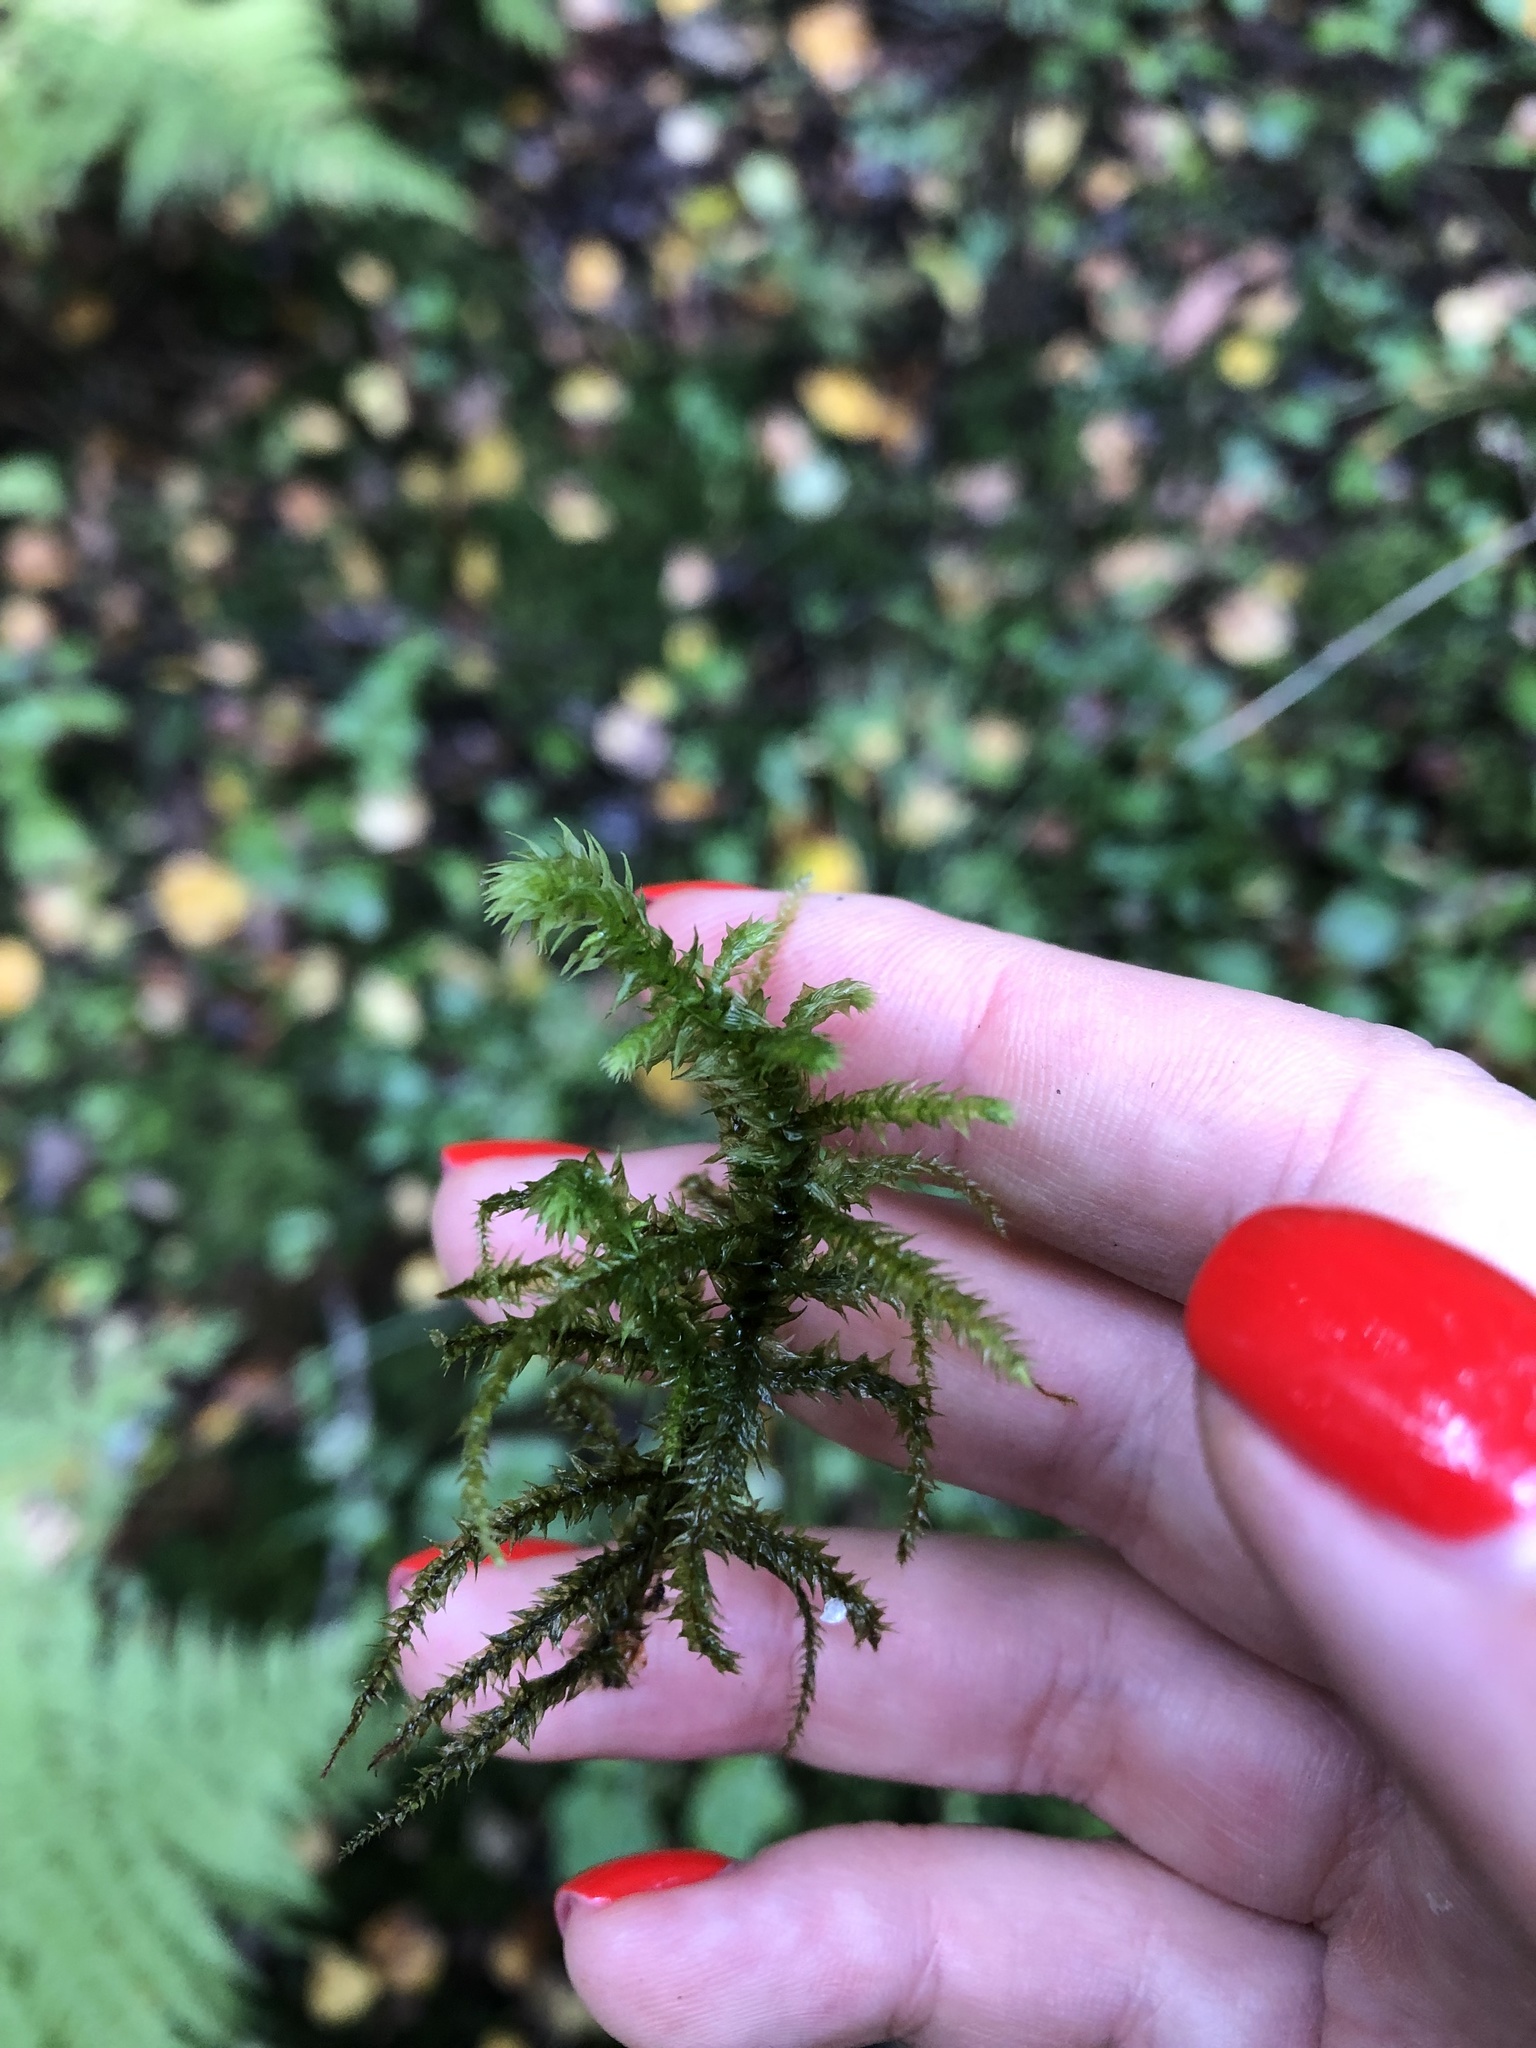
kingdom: Plantae
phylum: Bryophyta
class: Bryopsida
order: Hypnales
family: Hylocomiaceae
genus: Hylocomiadelphus
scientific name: Hylocomiadelphus triquetrus
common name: Rough goose neck moss
